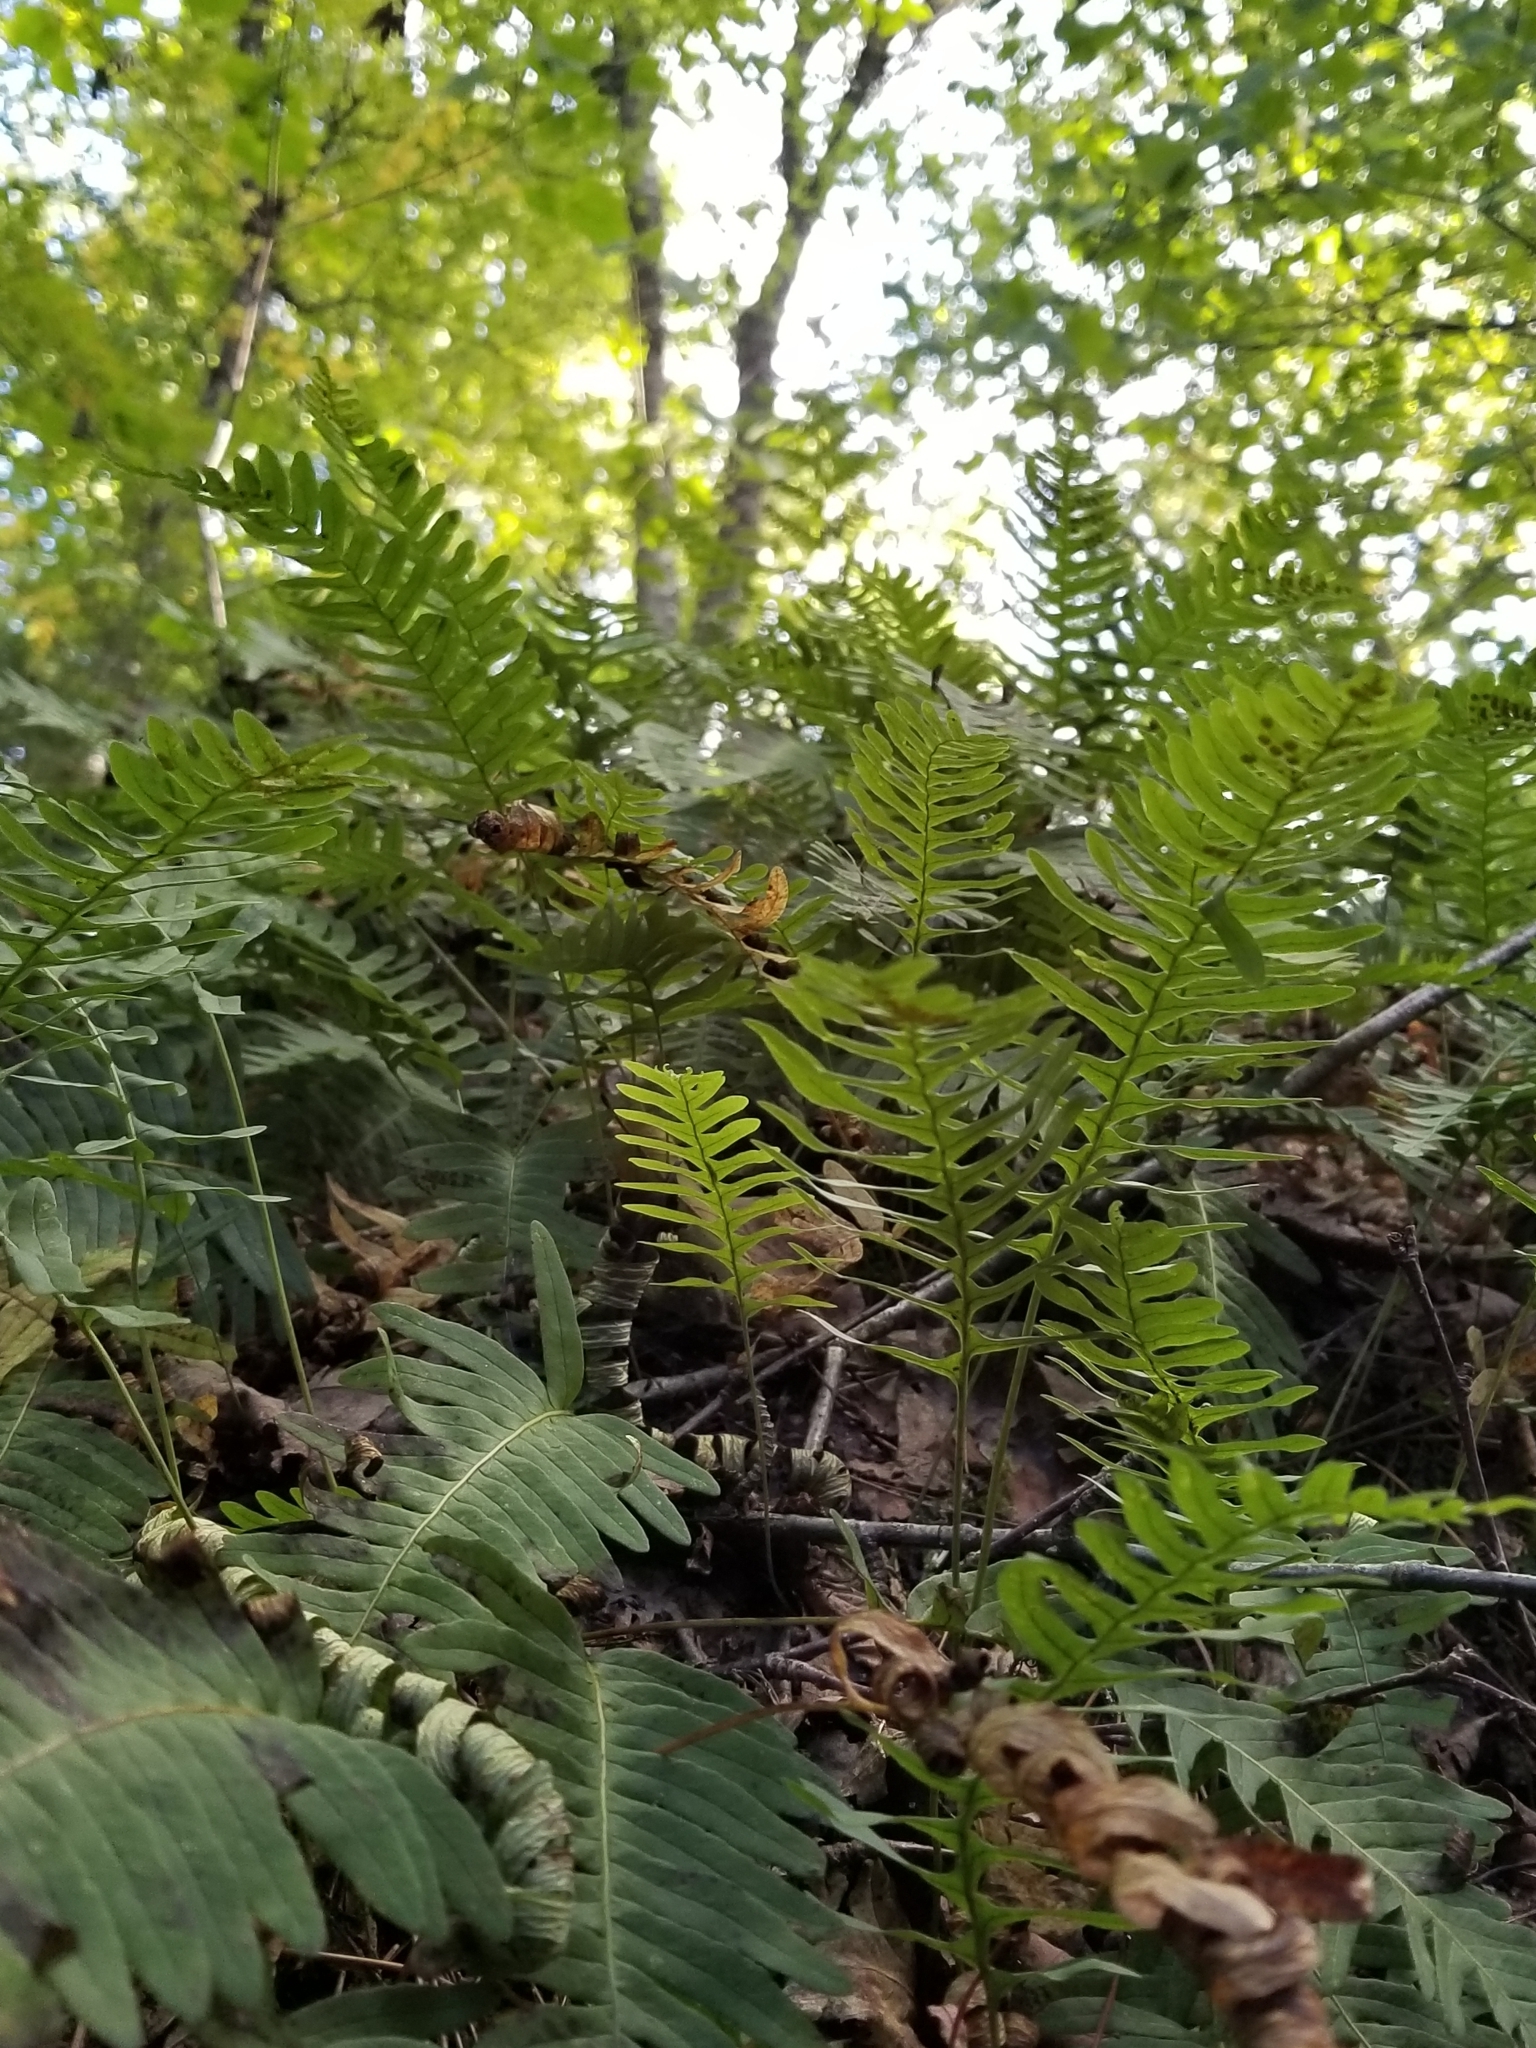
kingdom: Plantae
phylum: Tracheophyta
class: Polypodiopsida
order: Polypodiales
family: Polypodiaceae
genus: Polypodium
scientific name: Polypodium virginianum
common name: American wall fern
